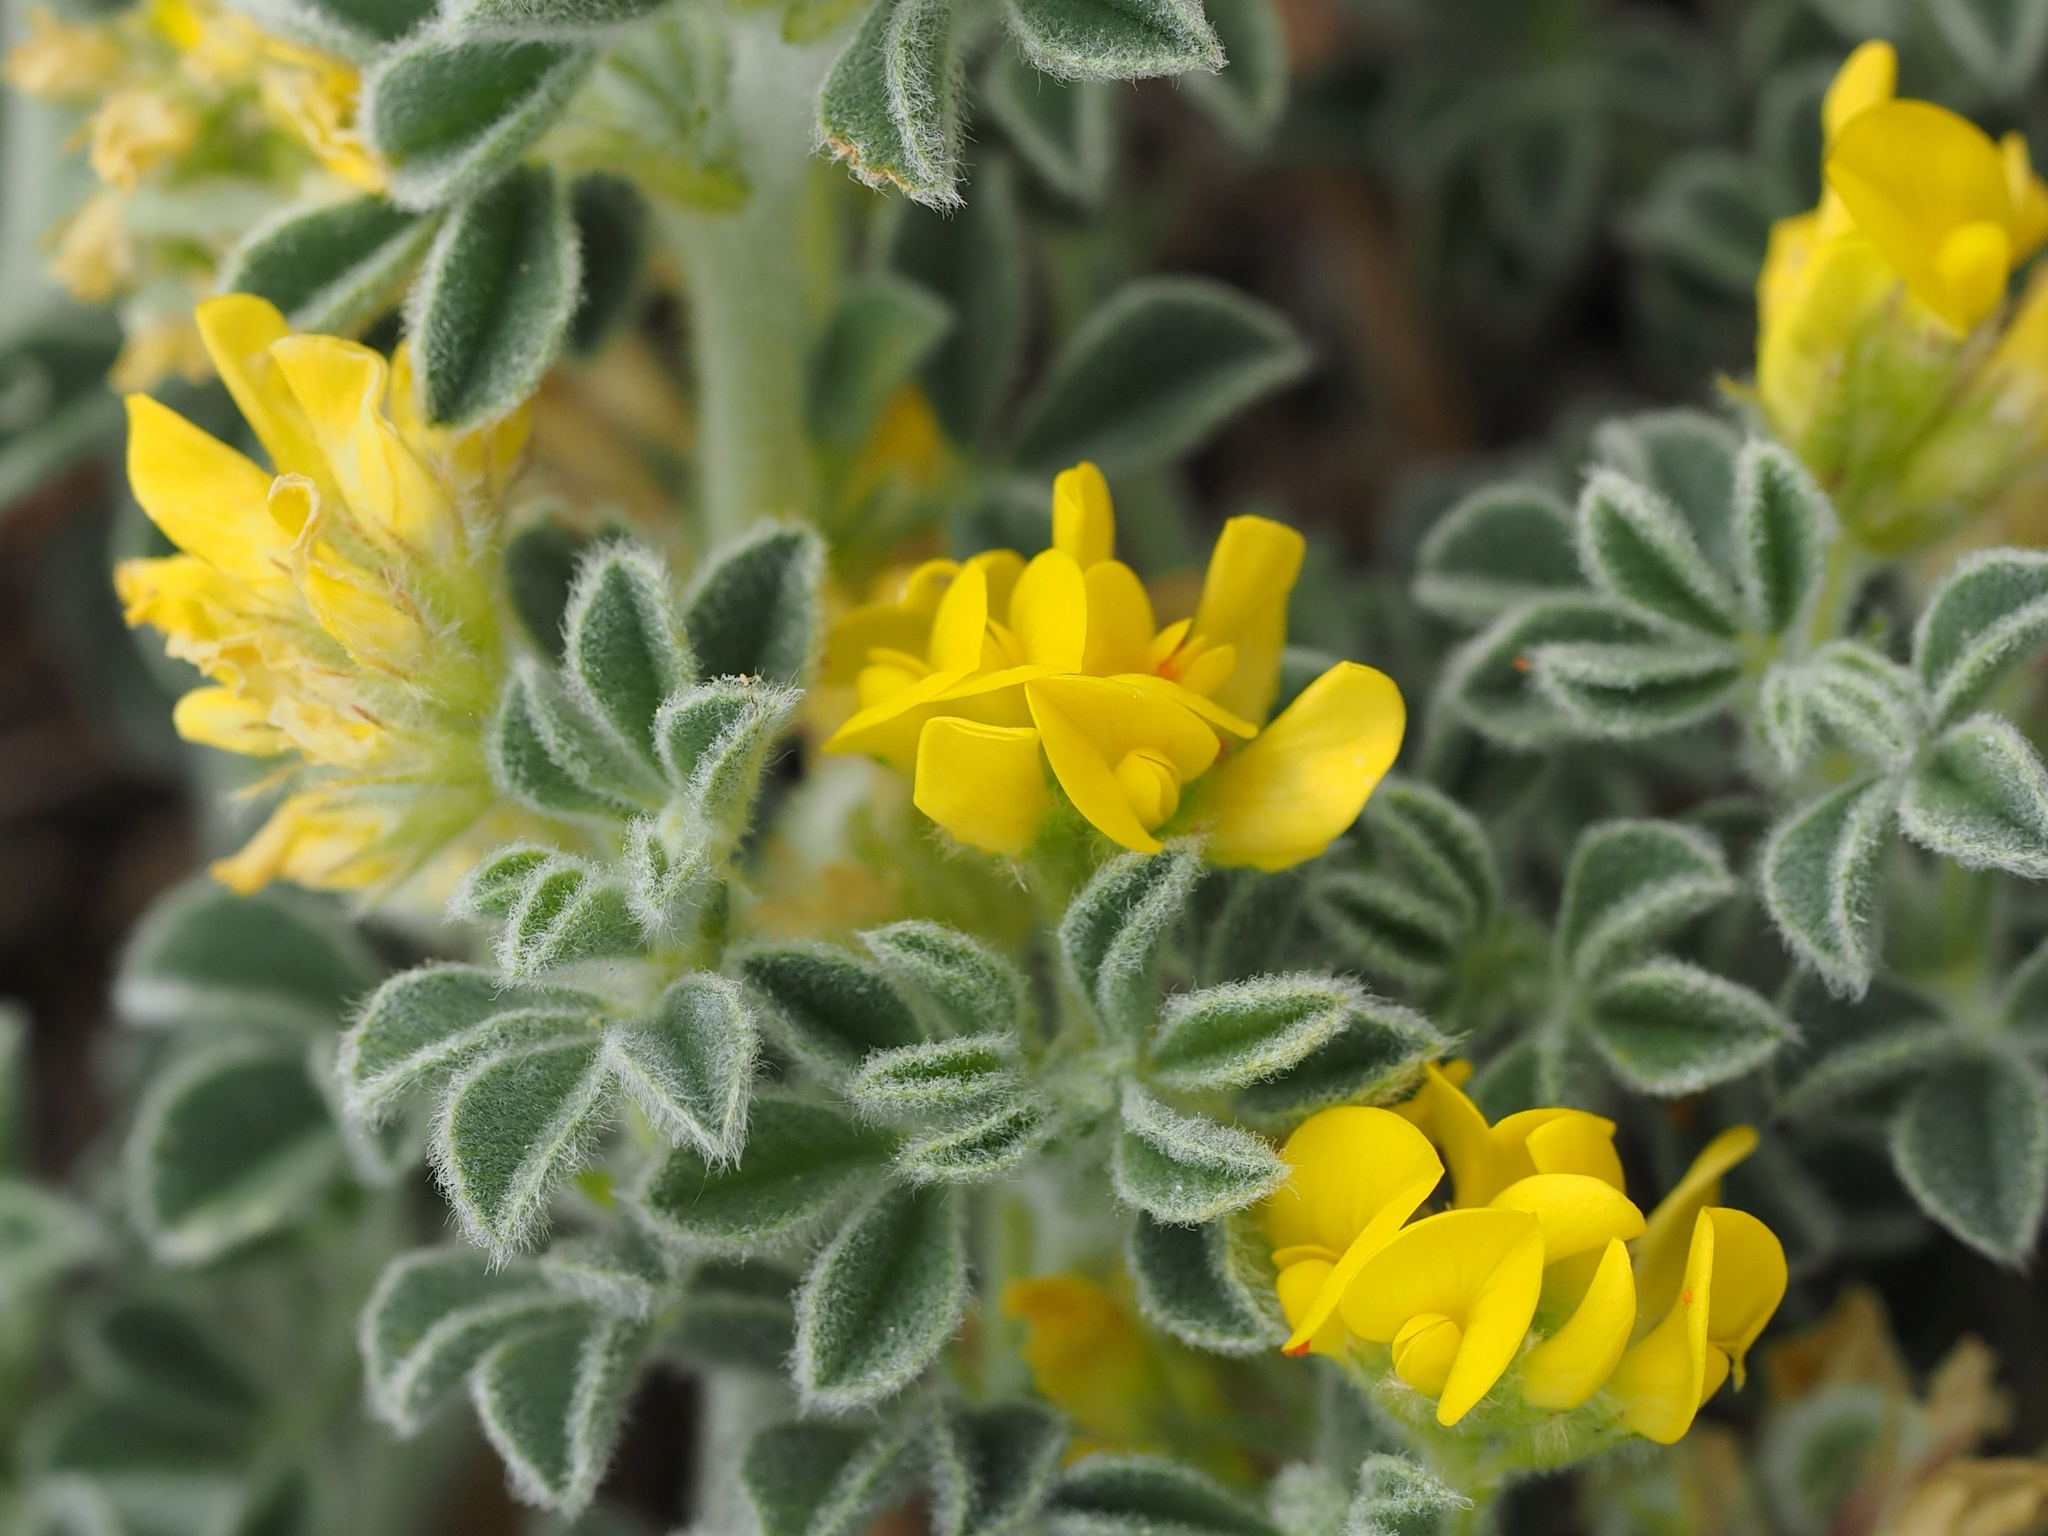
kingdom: Plantae
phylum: Tracheophyta
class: Magnoliopsida
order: Fabales
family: Fabaceae
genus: Medicago
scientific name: Medicago marina
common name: Sea medick
